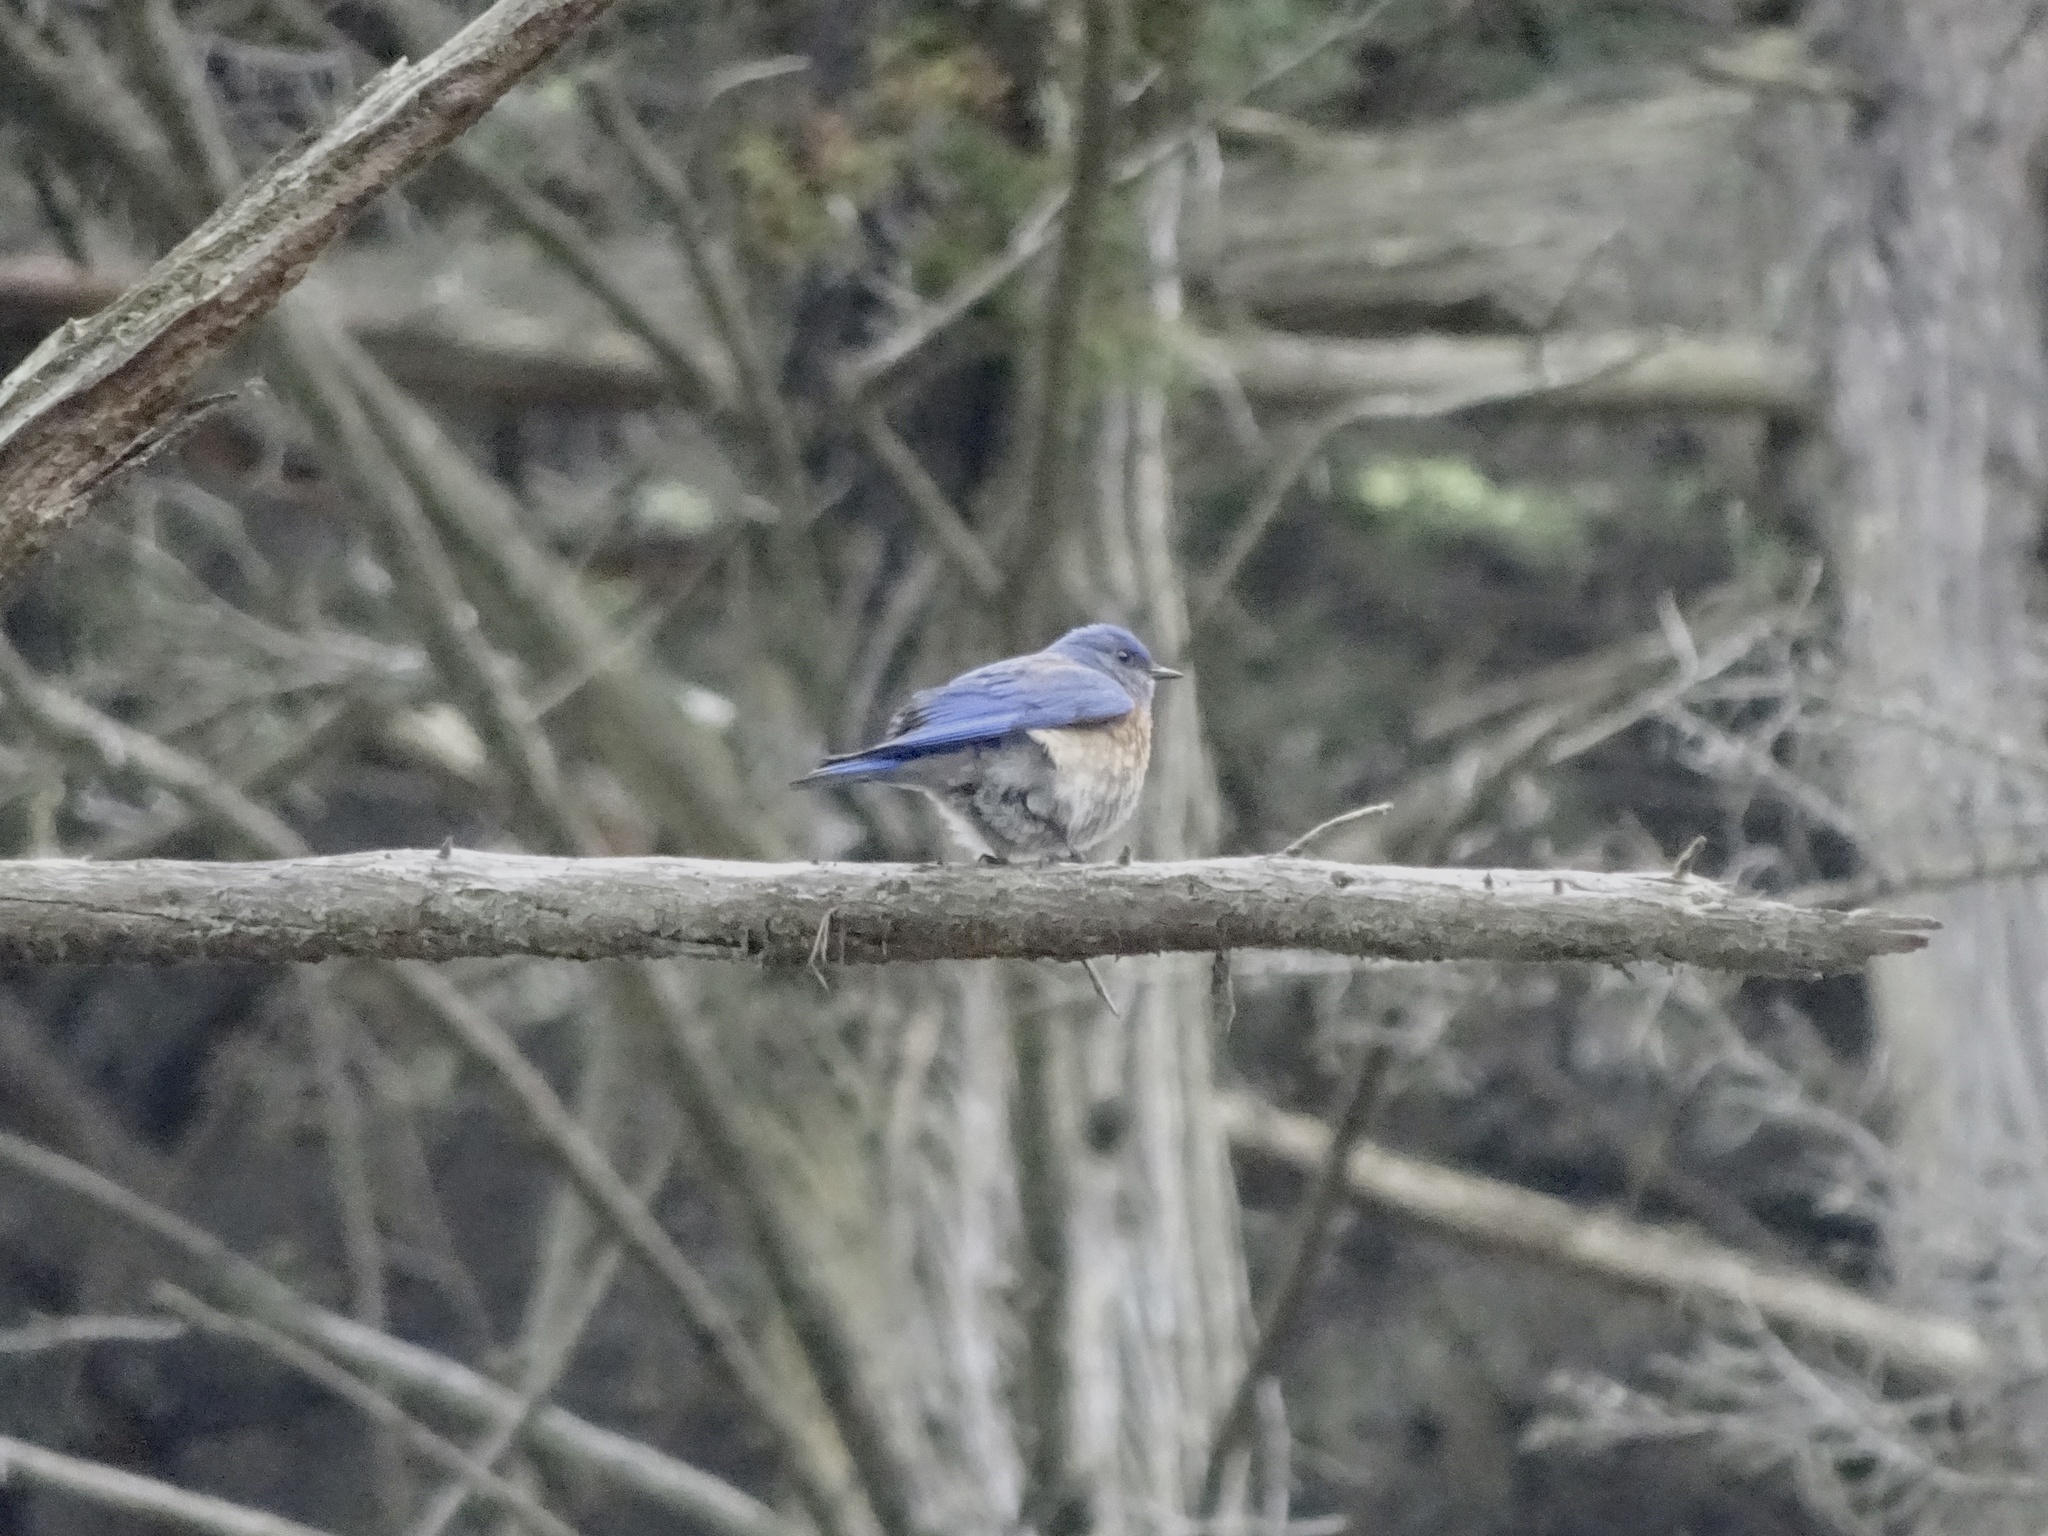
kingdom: Animalia
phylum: Chordata
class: Aves
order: Passeriformes
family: Turdidae
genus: Sialia
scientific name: Sialia mexicana
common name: Western bluebird
